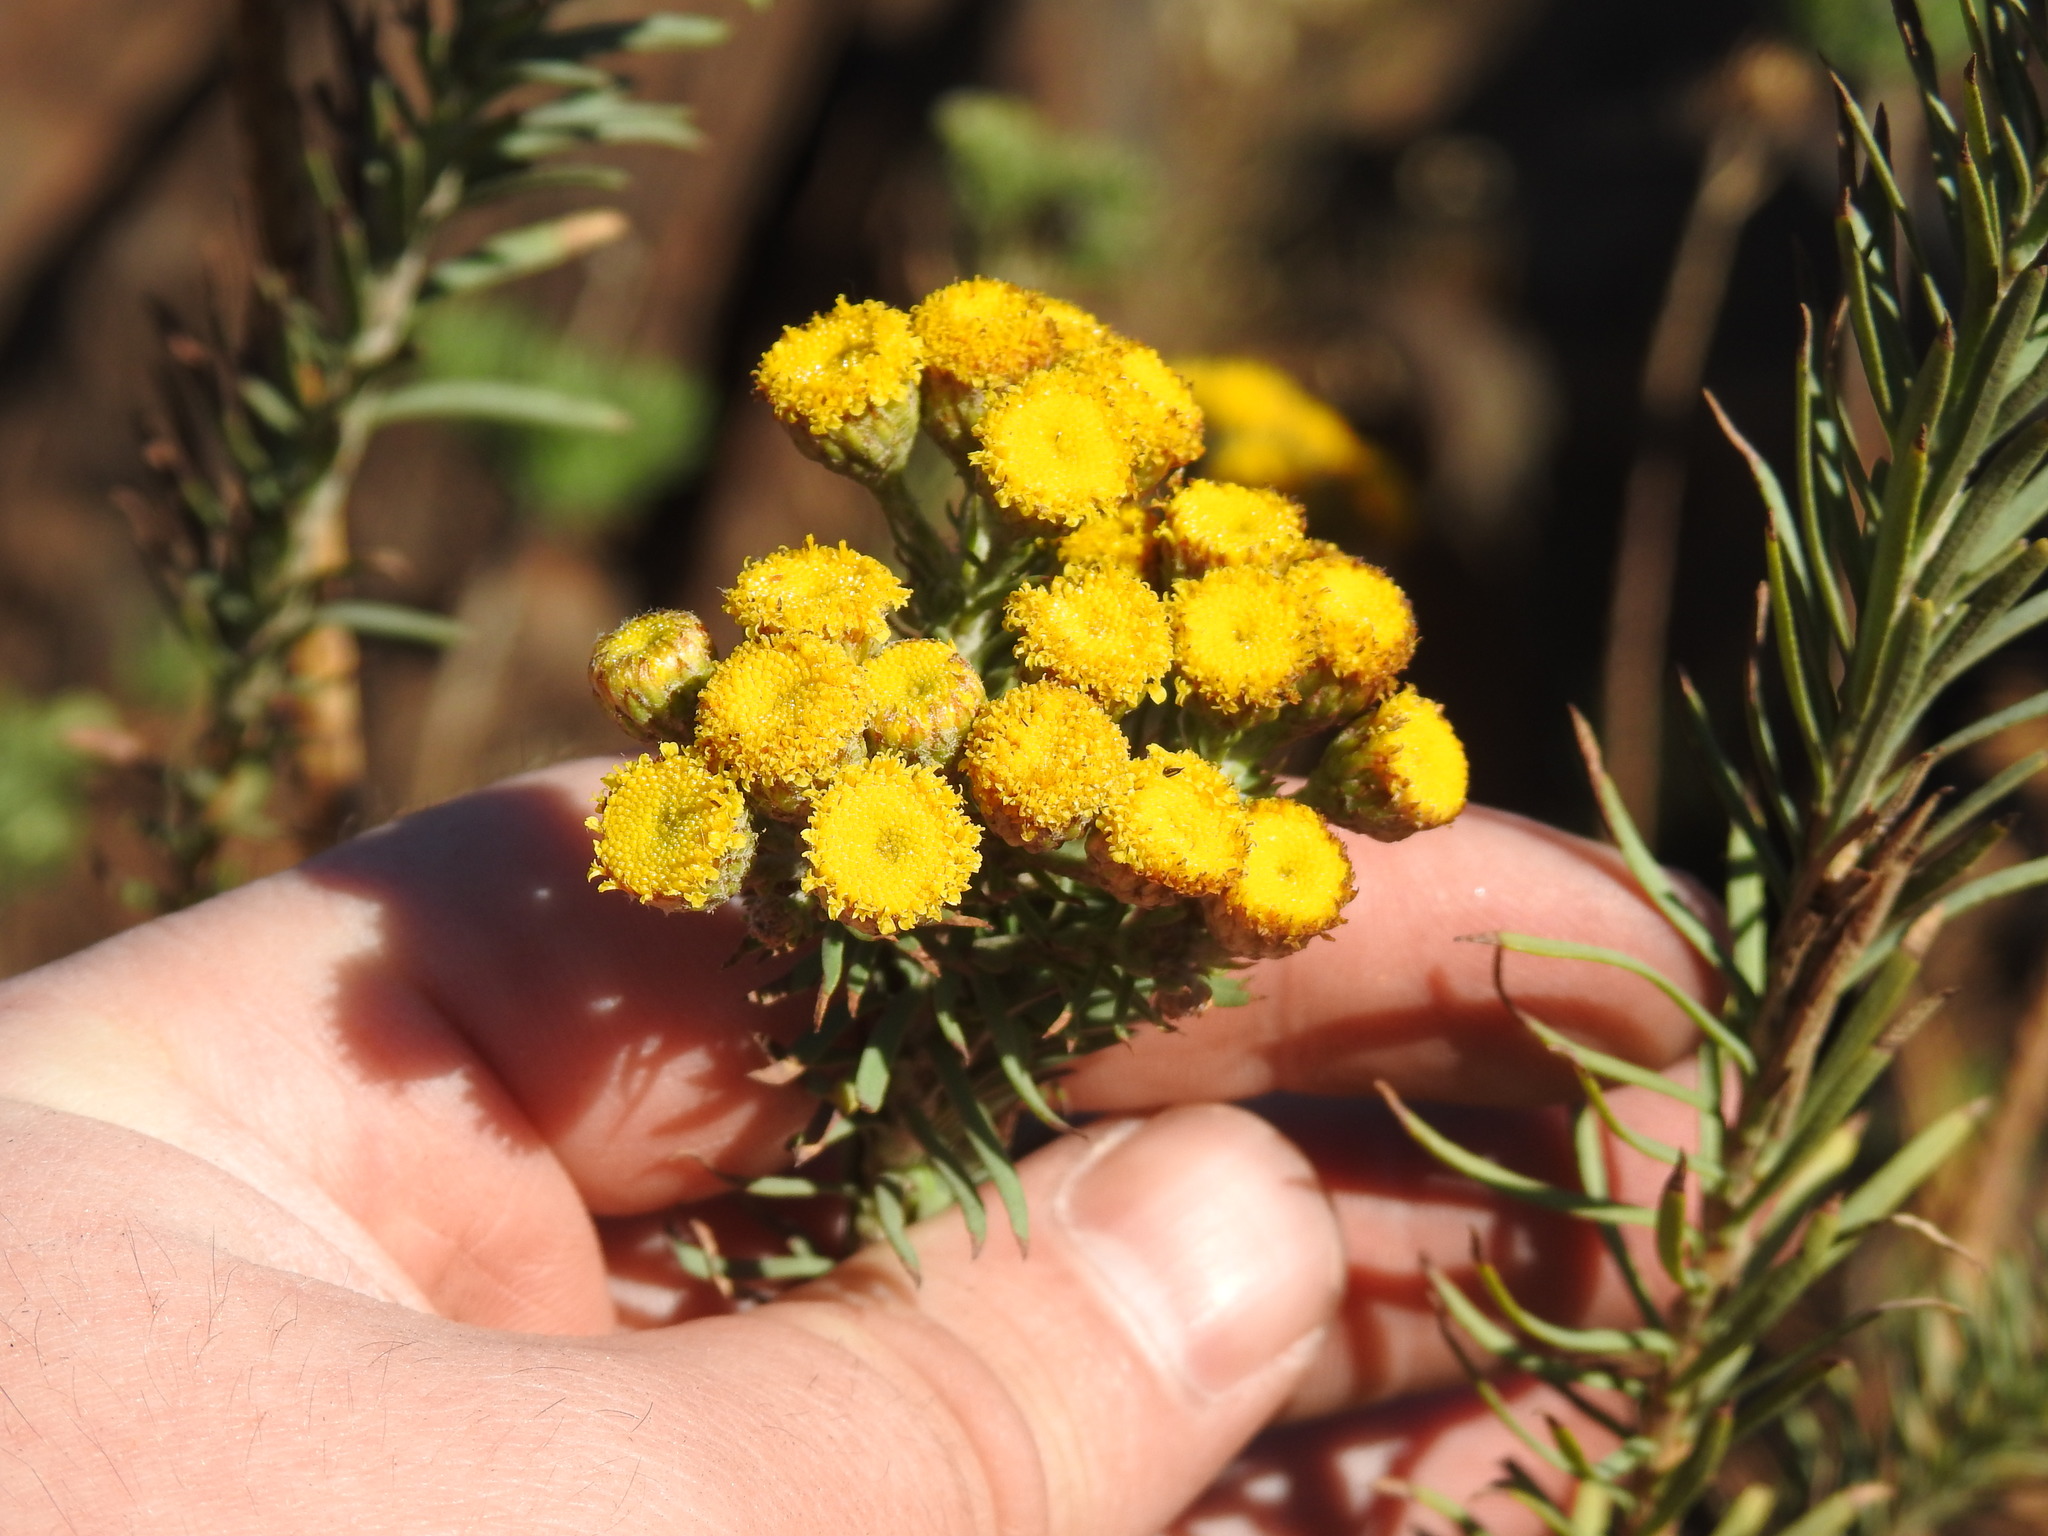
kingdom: Plantae
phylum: Tracheophyta
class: Magnoliopsida
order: Asterales
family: Asteraceae
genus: Phymaspermum
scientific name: Phymaspermum athanasioides
